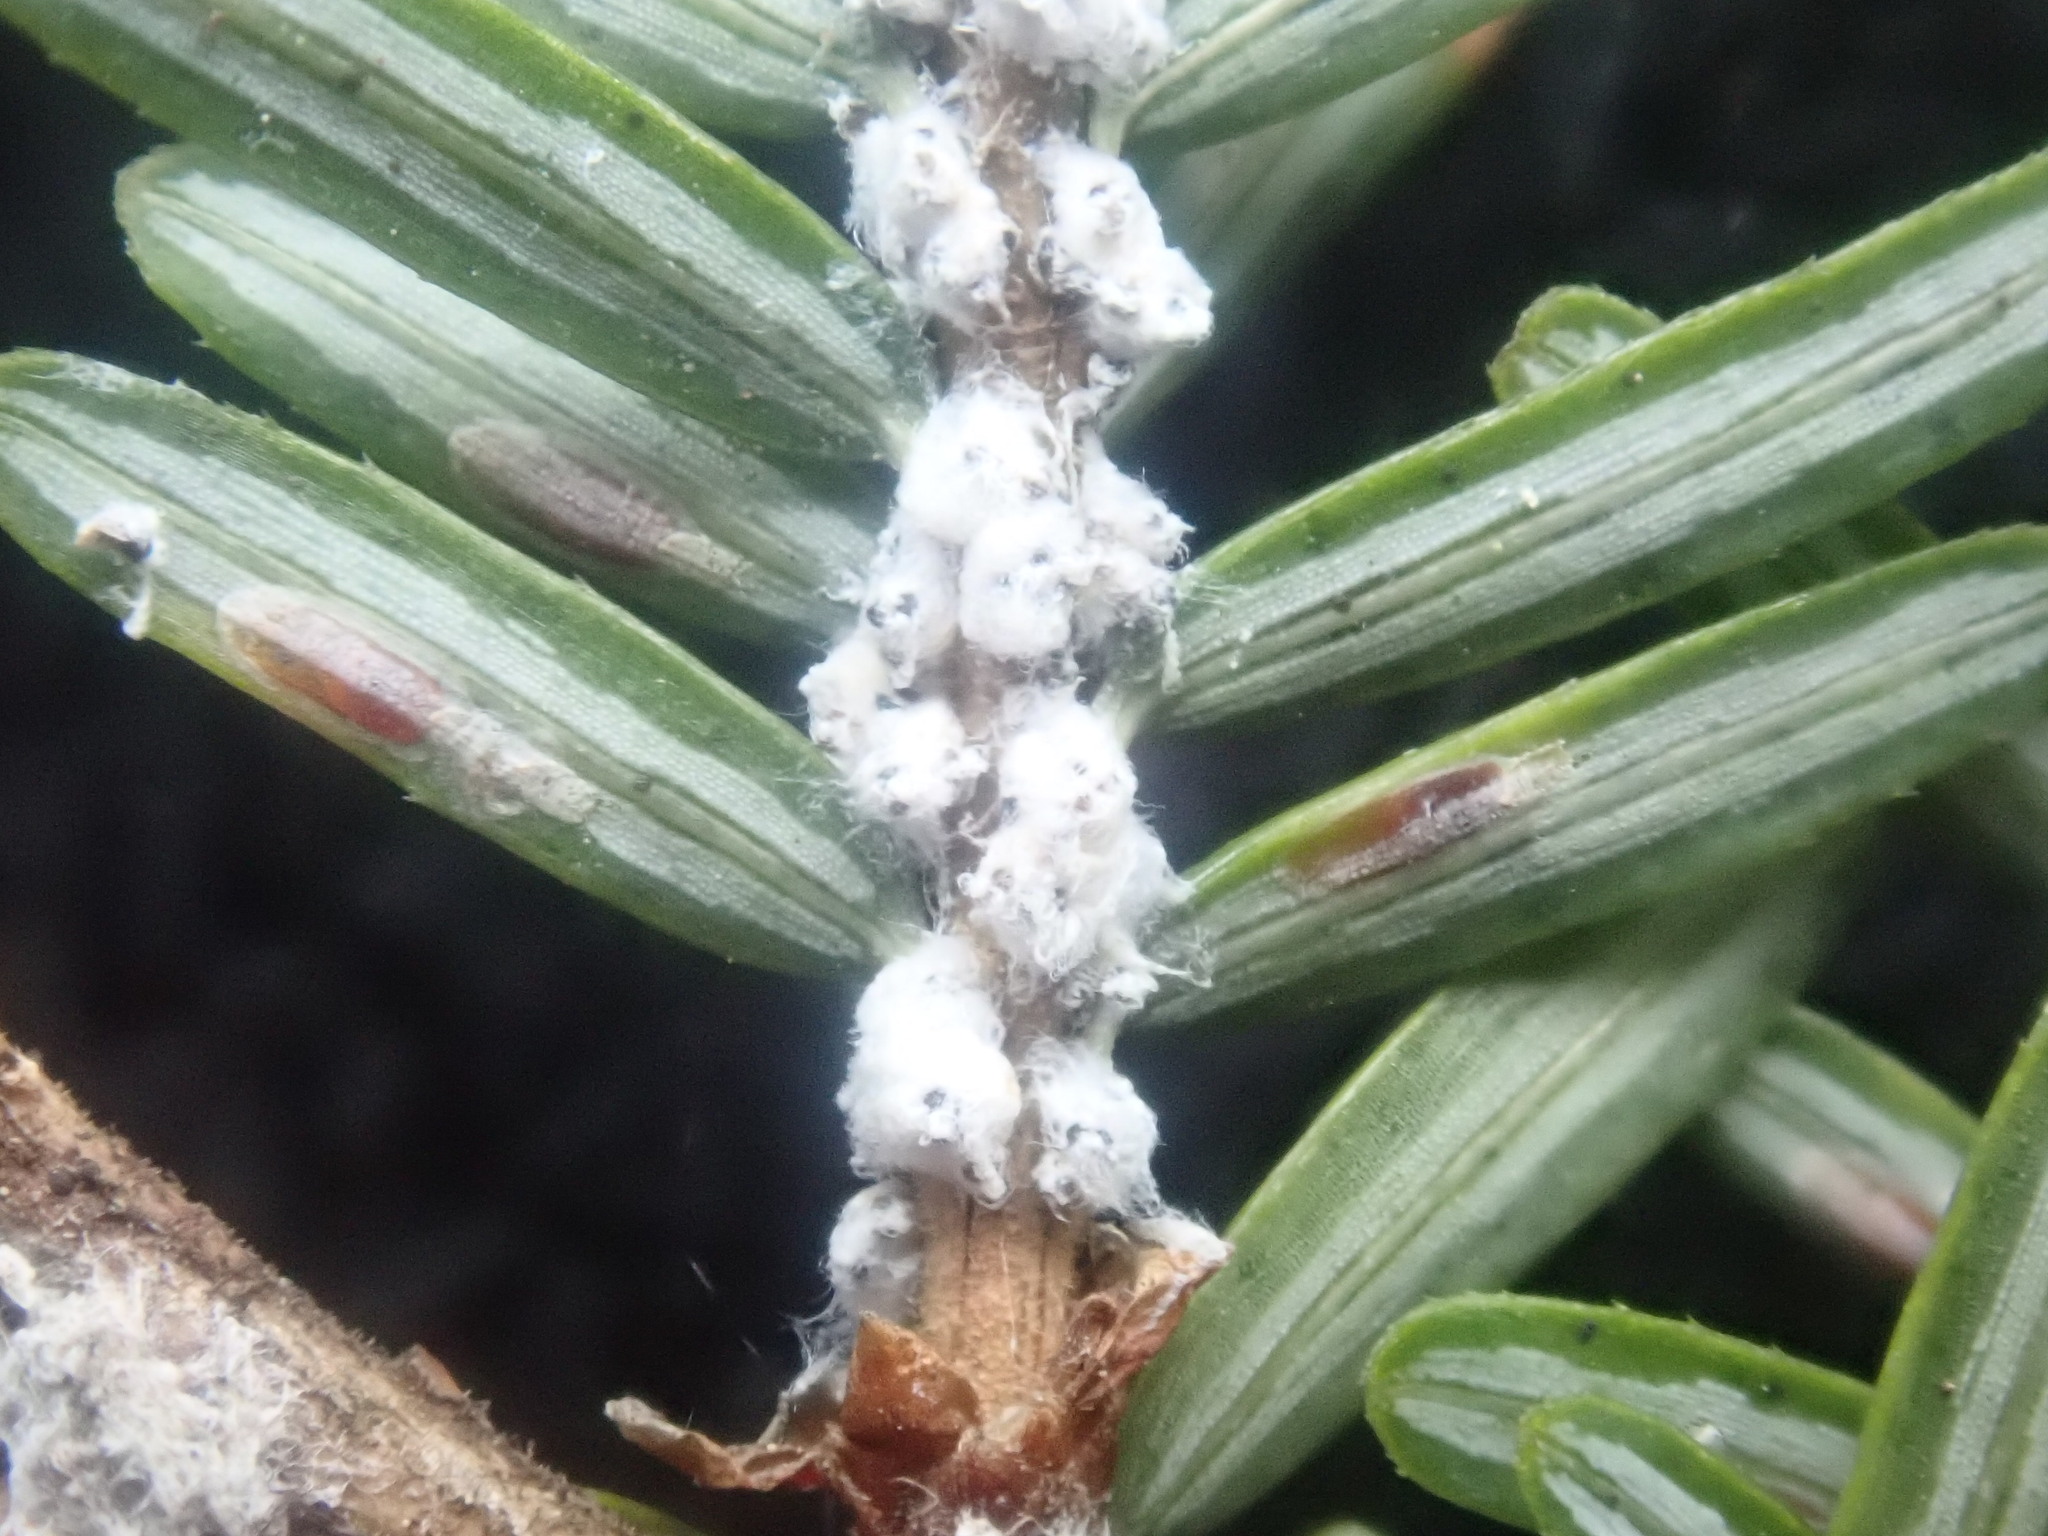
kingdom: Animalia
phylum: Arthropoda
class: Insecta
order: Hemiptera
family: Adelgidae
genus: Adelges
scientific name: Adelges tsugae
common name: Hemlock woolly adelgid
